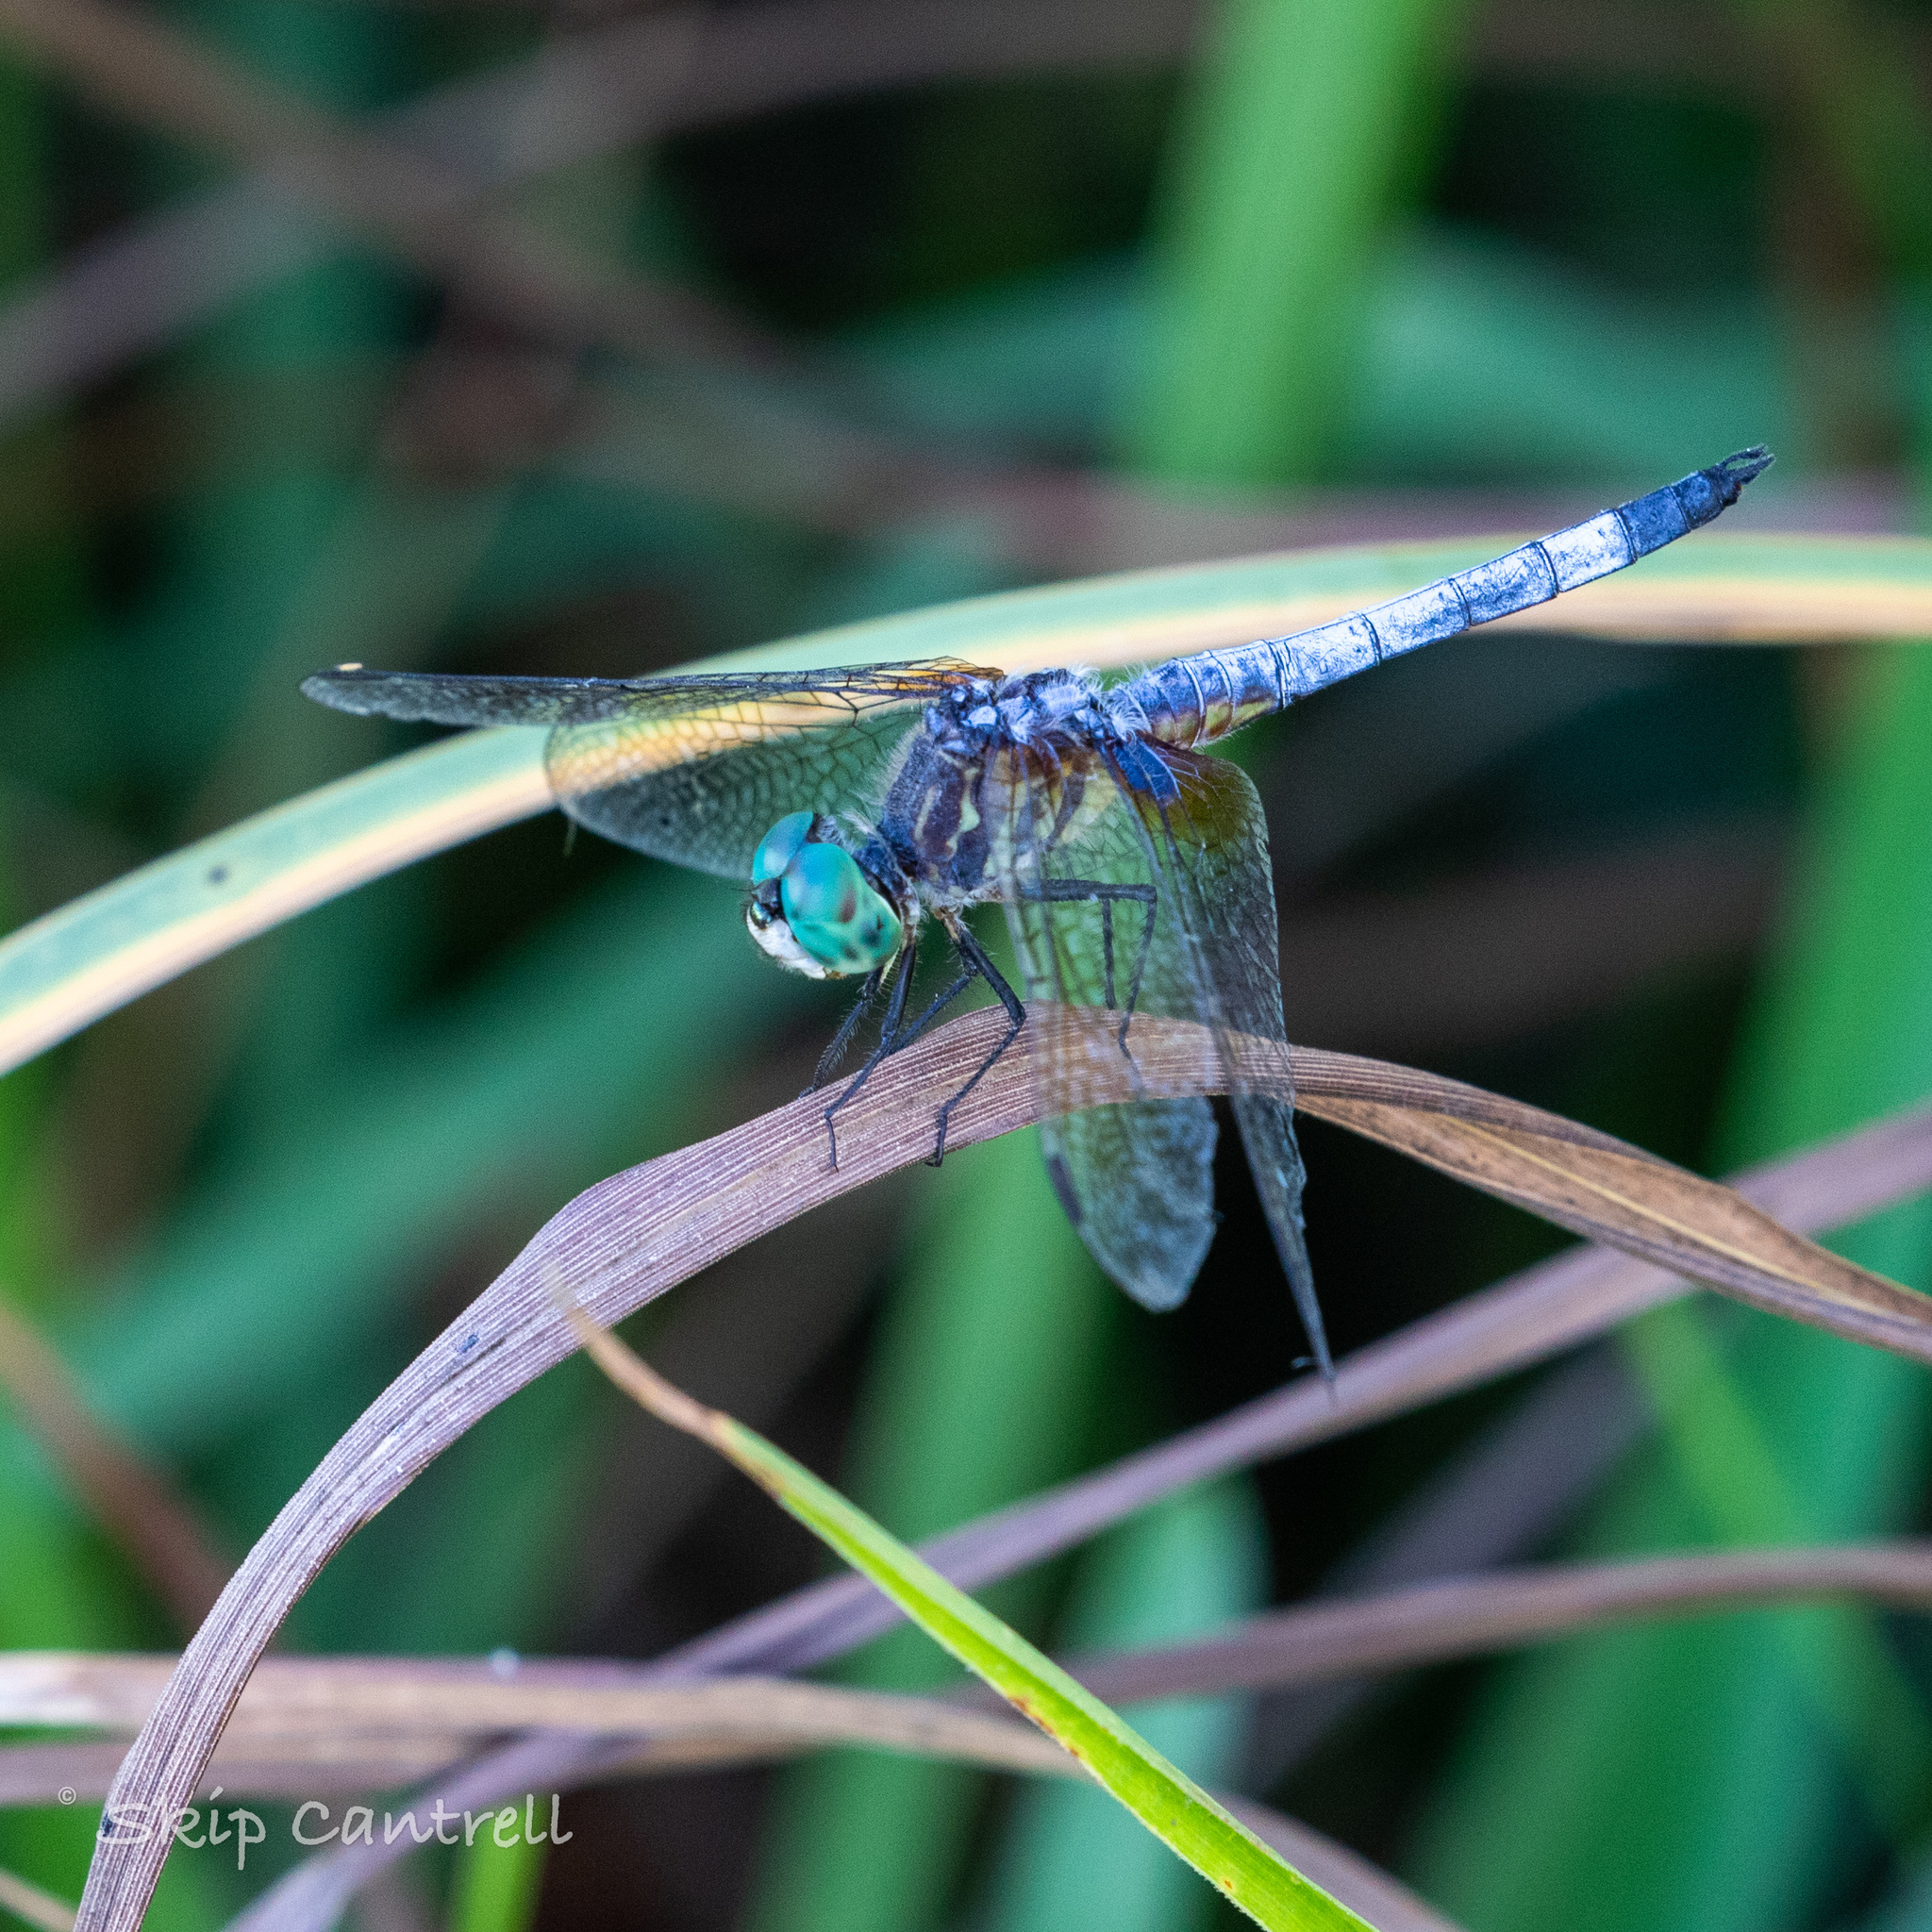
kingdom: Animalia
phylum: Arthropoda
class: Insecta
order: Odonata
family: Libellulidae
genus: Pachydiplax
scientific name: Pachydiplax longipennis
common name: Blue dasher
